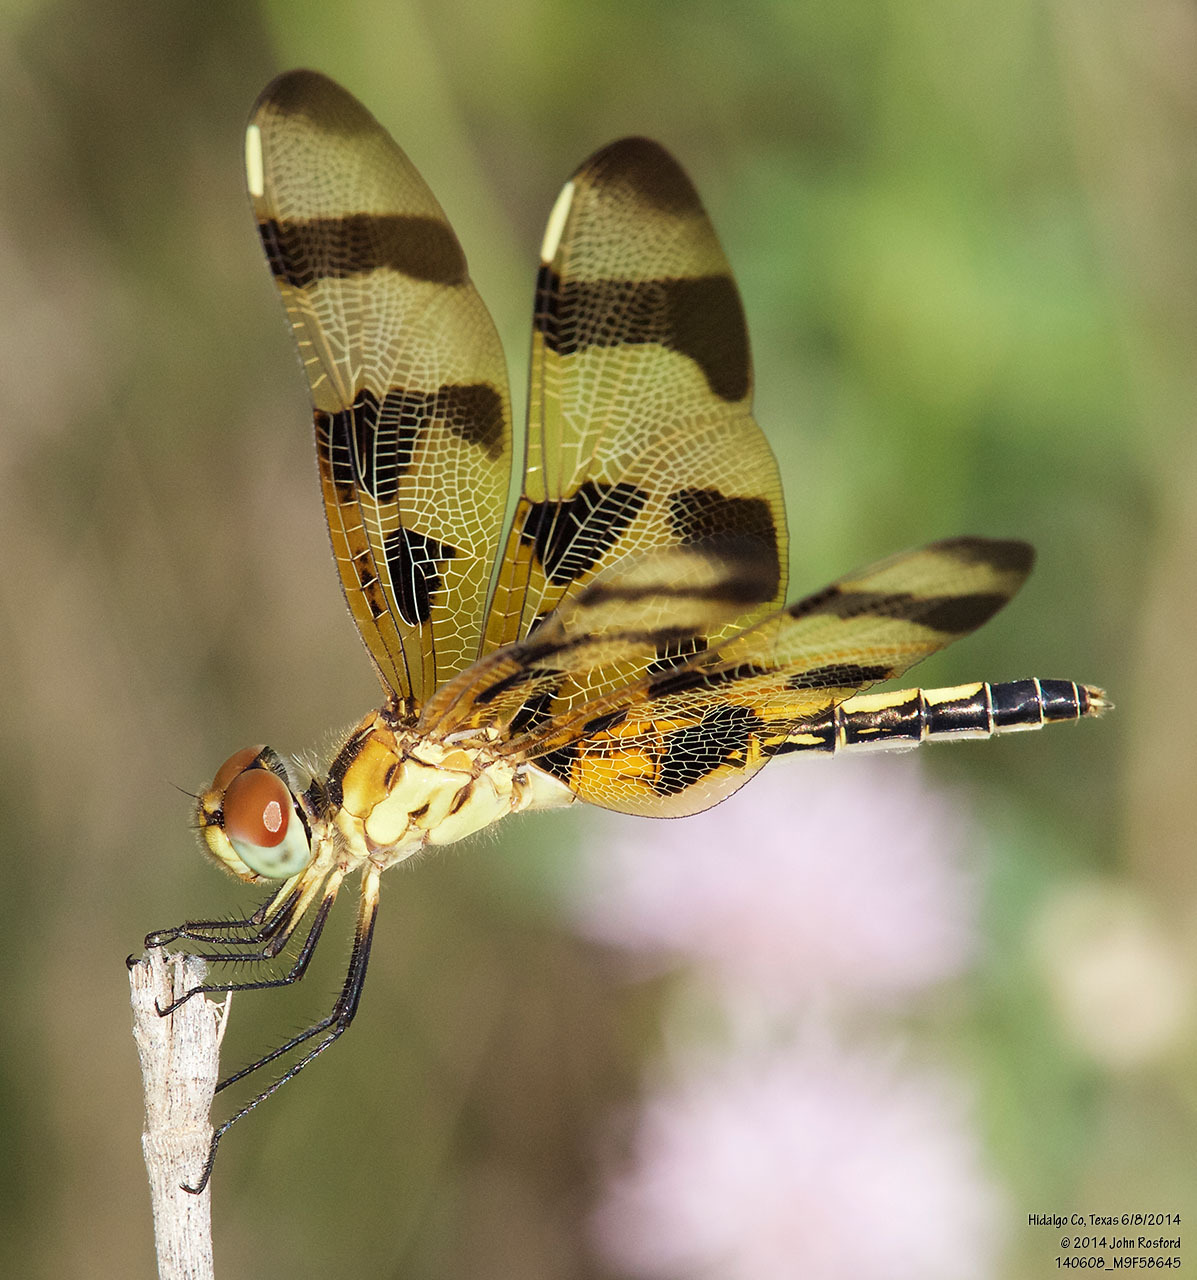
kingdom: Animalia
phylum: Arthropoda
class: Insecta
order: Odonata
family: Libellulidae
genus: Celithemis
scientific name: Celithemis eponina
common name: Halloween pennant
